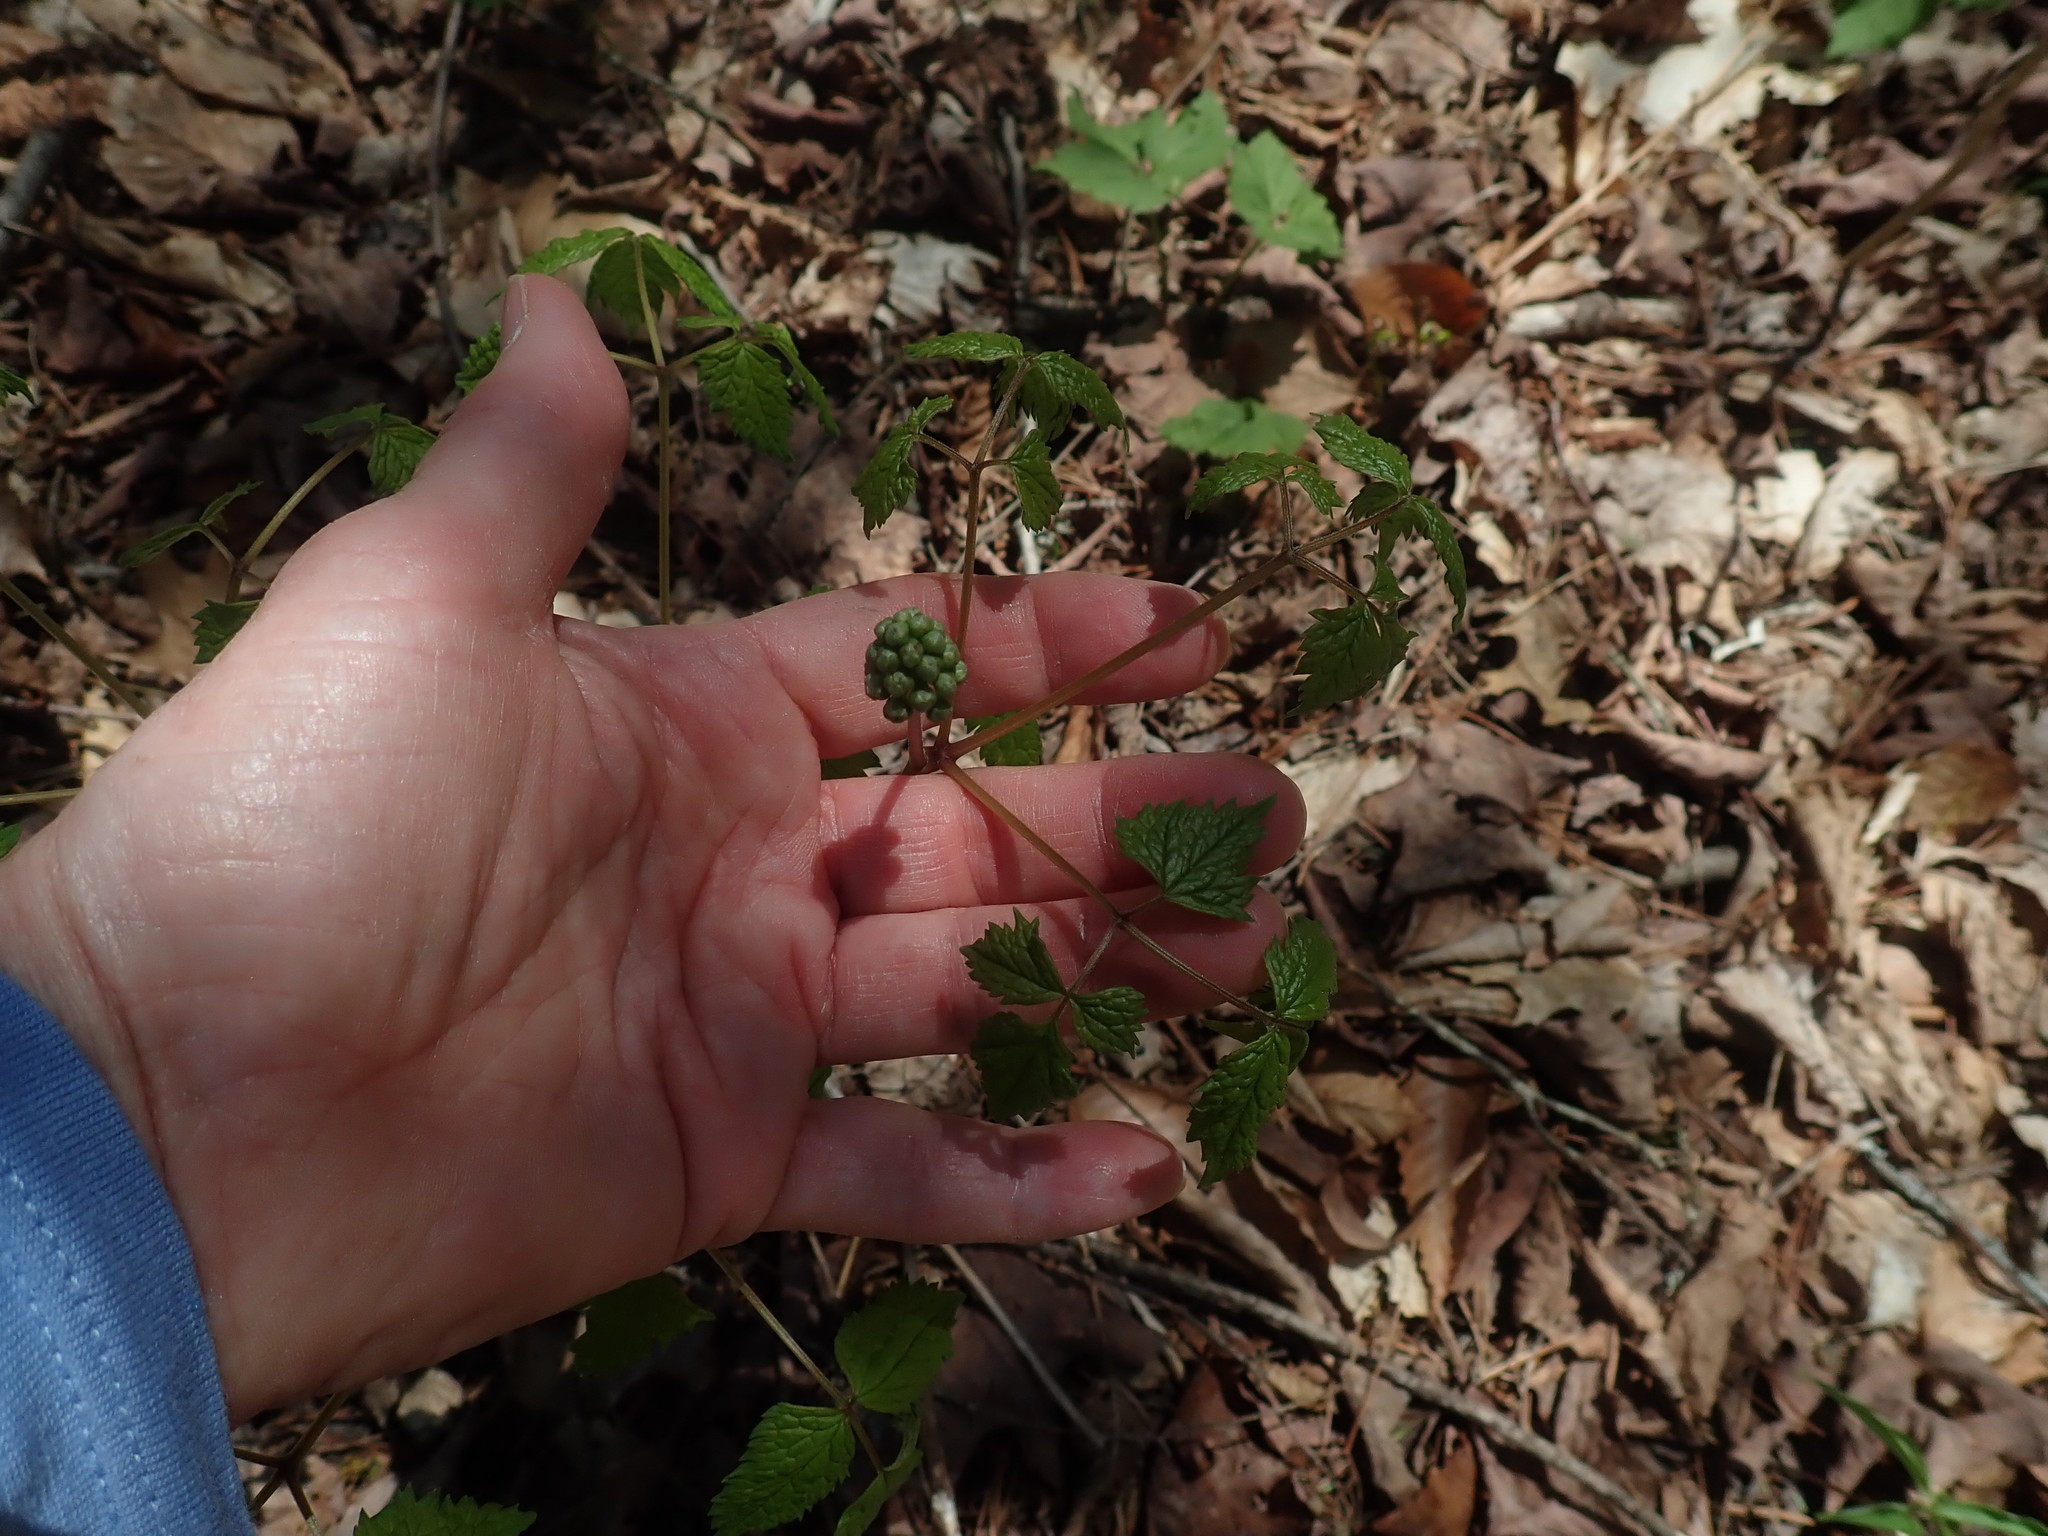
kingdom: Plantae
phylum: Tracheophyta
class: Magnoliopsida
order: Ranunculales
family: Ranunculaceae
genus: Actaea
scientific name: Actaea
